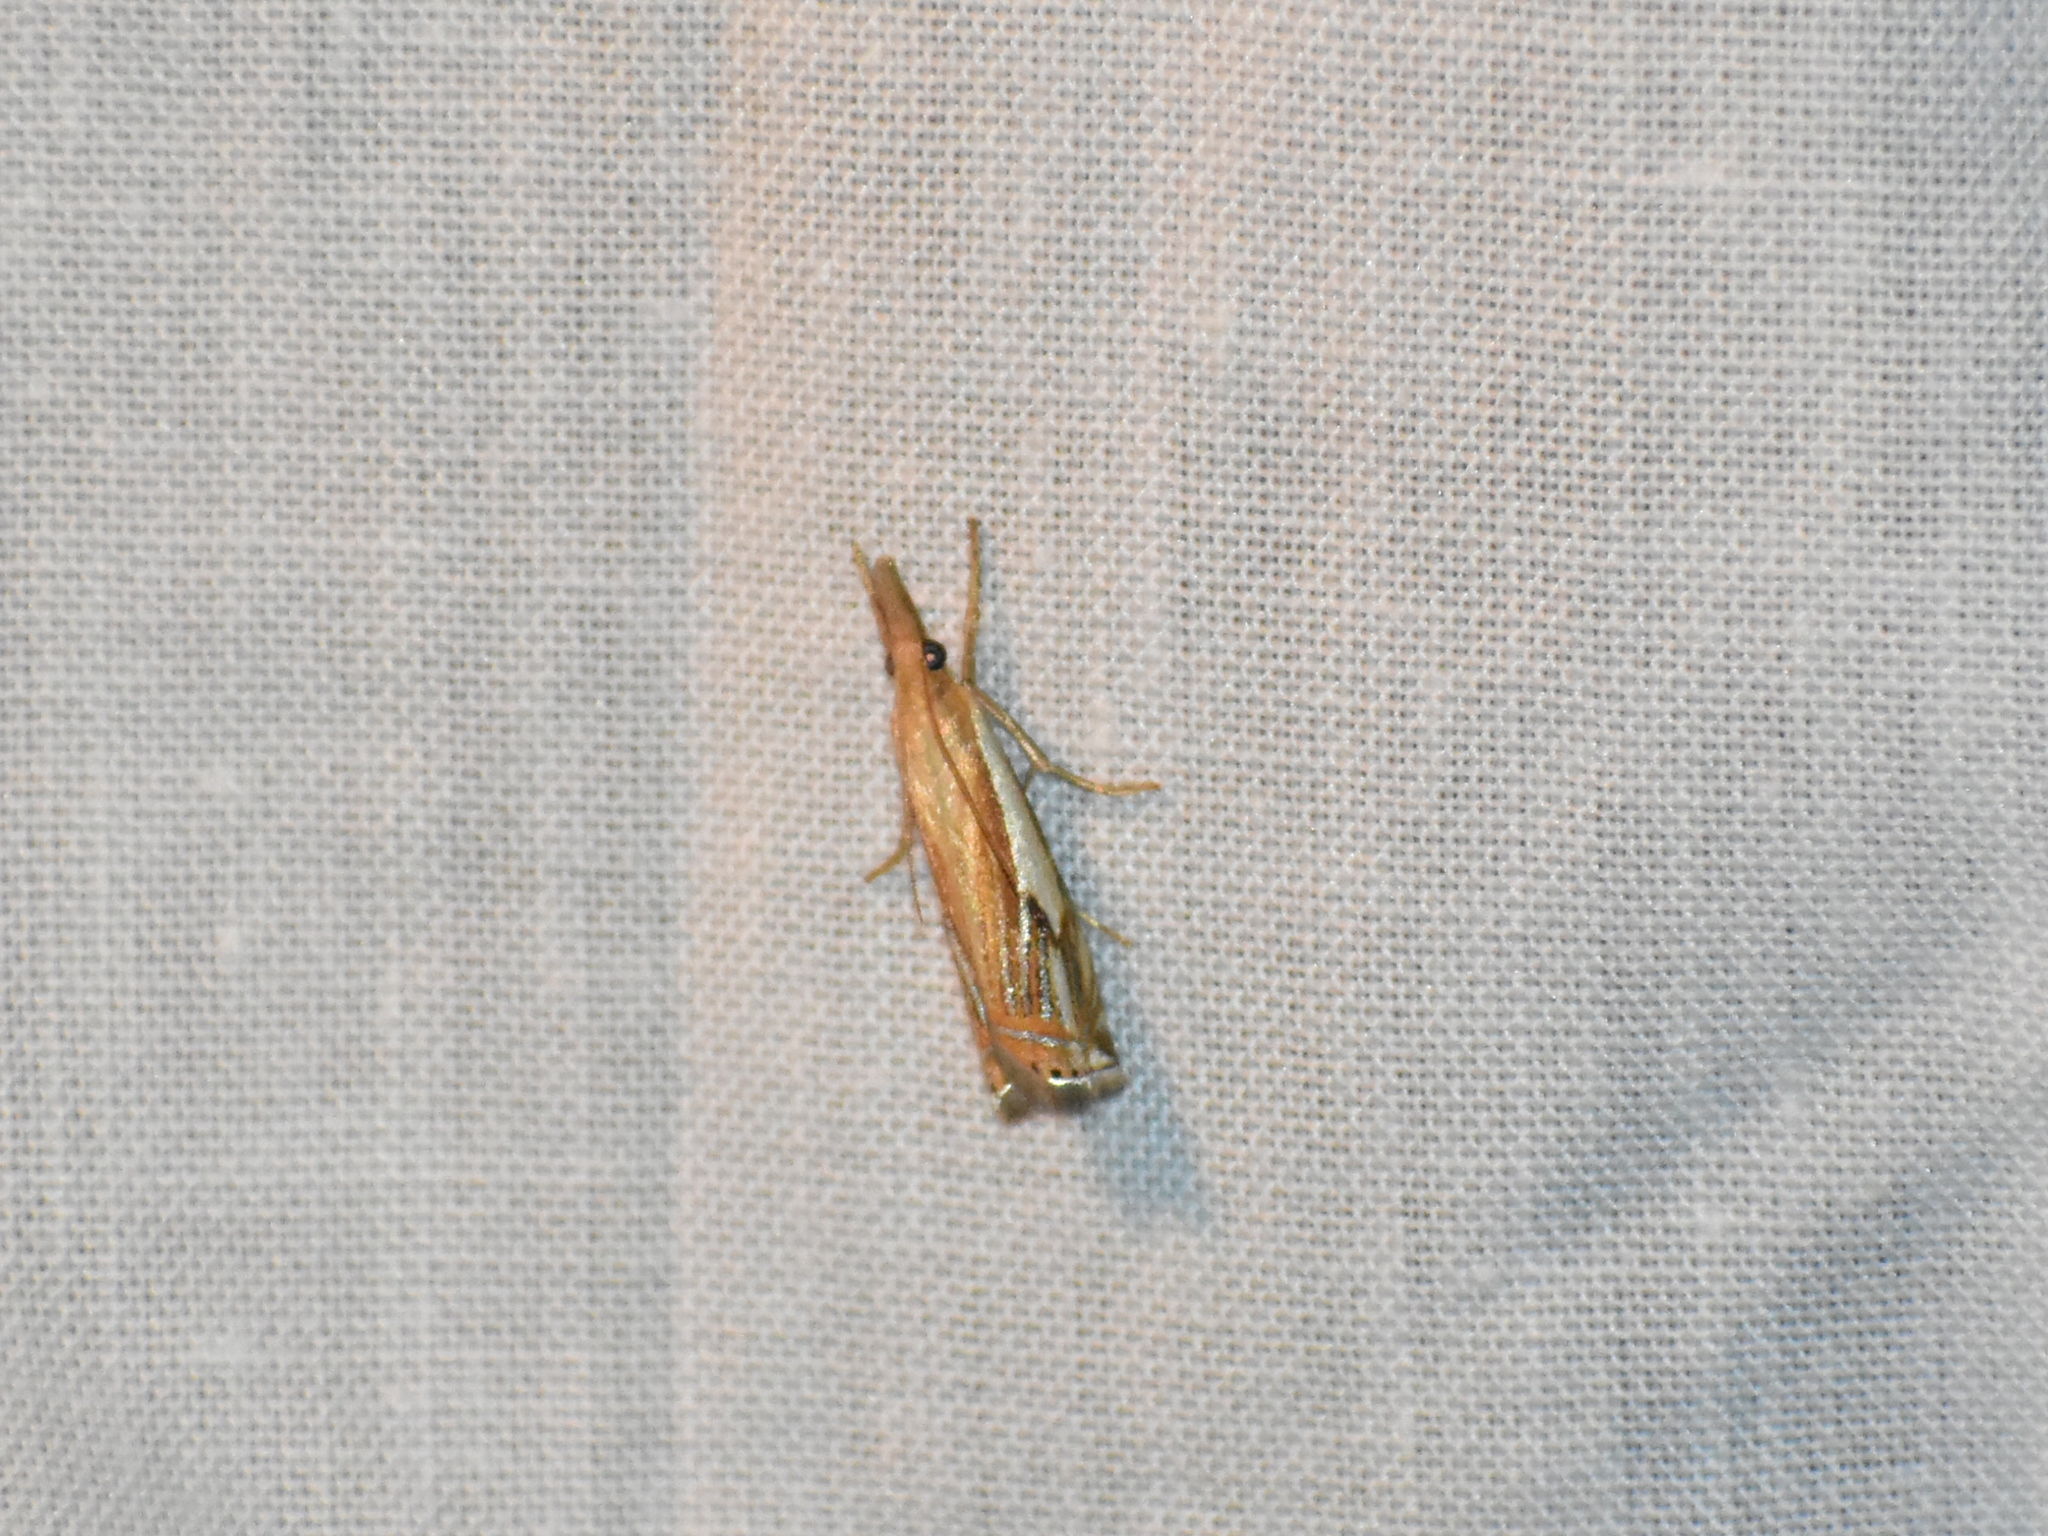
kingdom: Animalia
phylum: Arthropoda
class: Insecta
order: Lepidoptera
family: Crambidae
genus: Crambus
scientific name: Crambus agitatellus
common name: Double-banded grass-veneer
